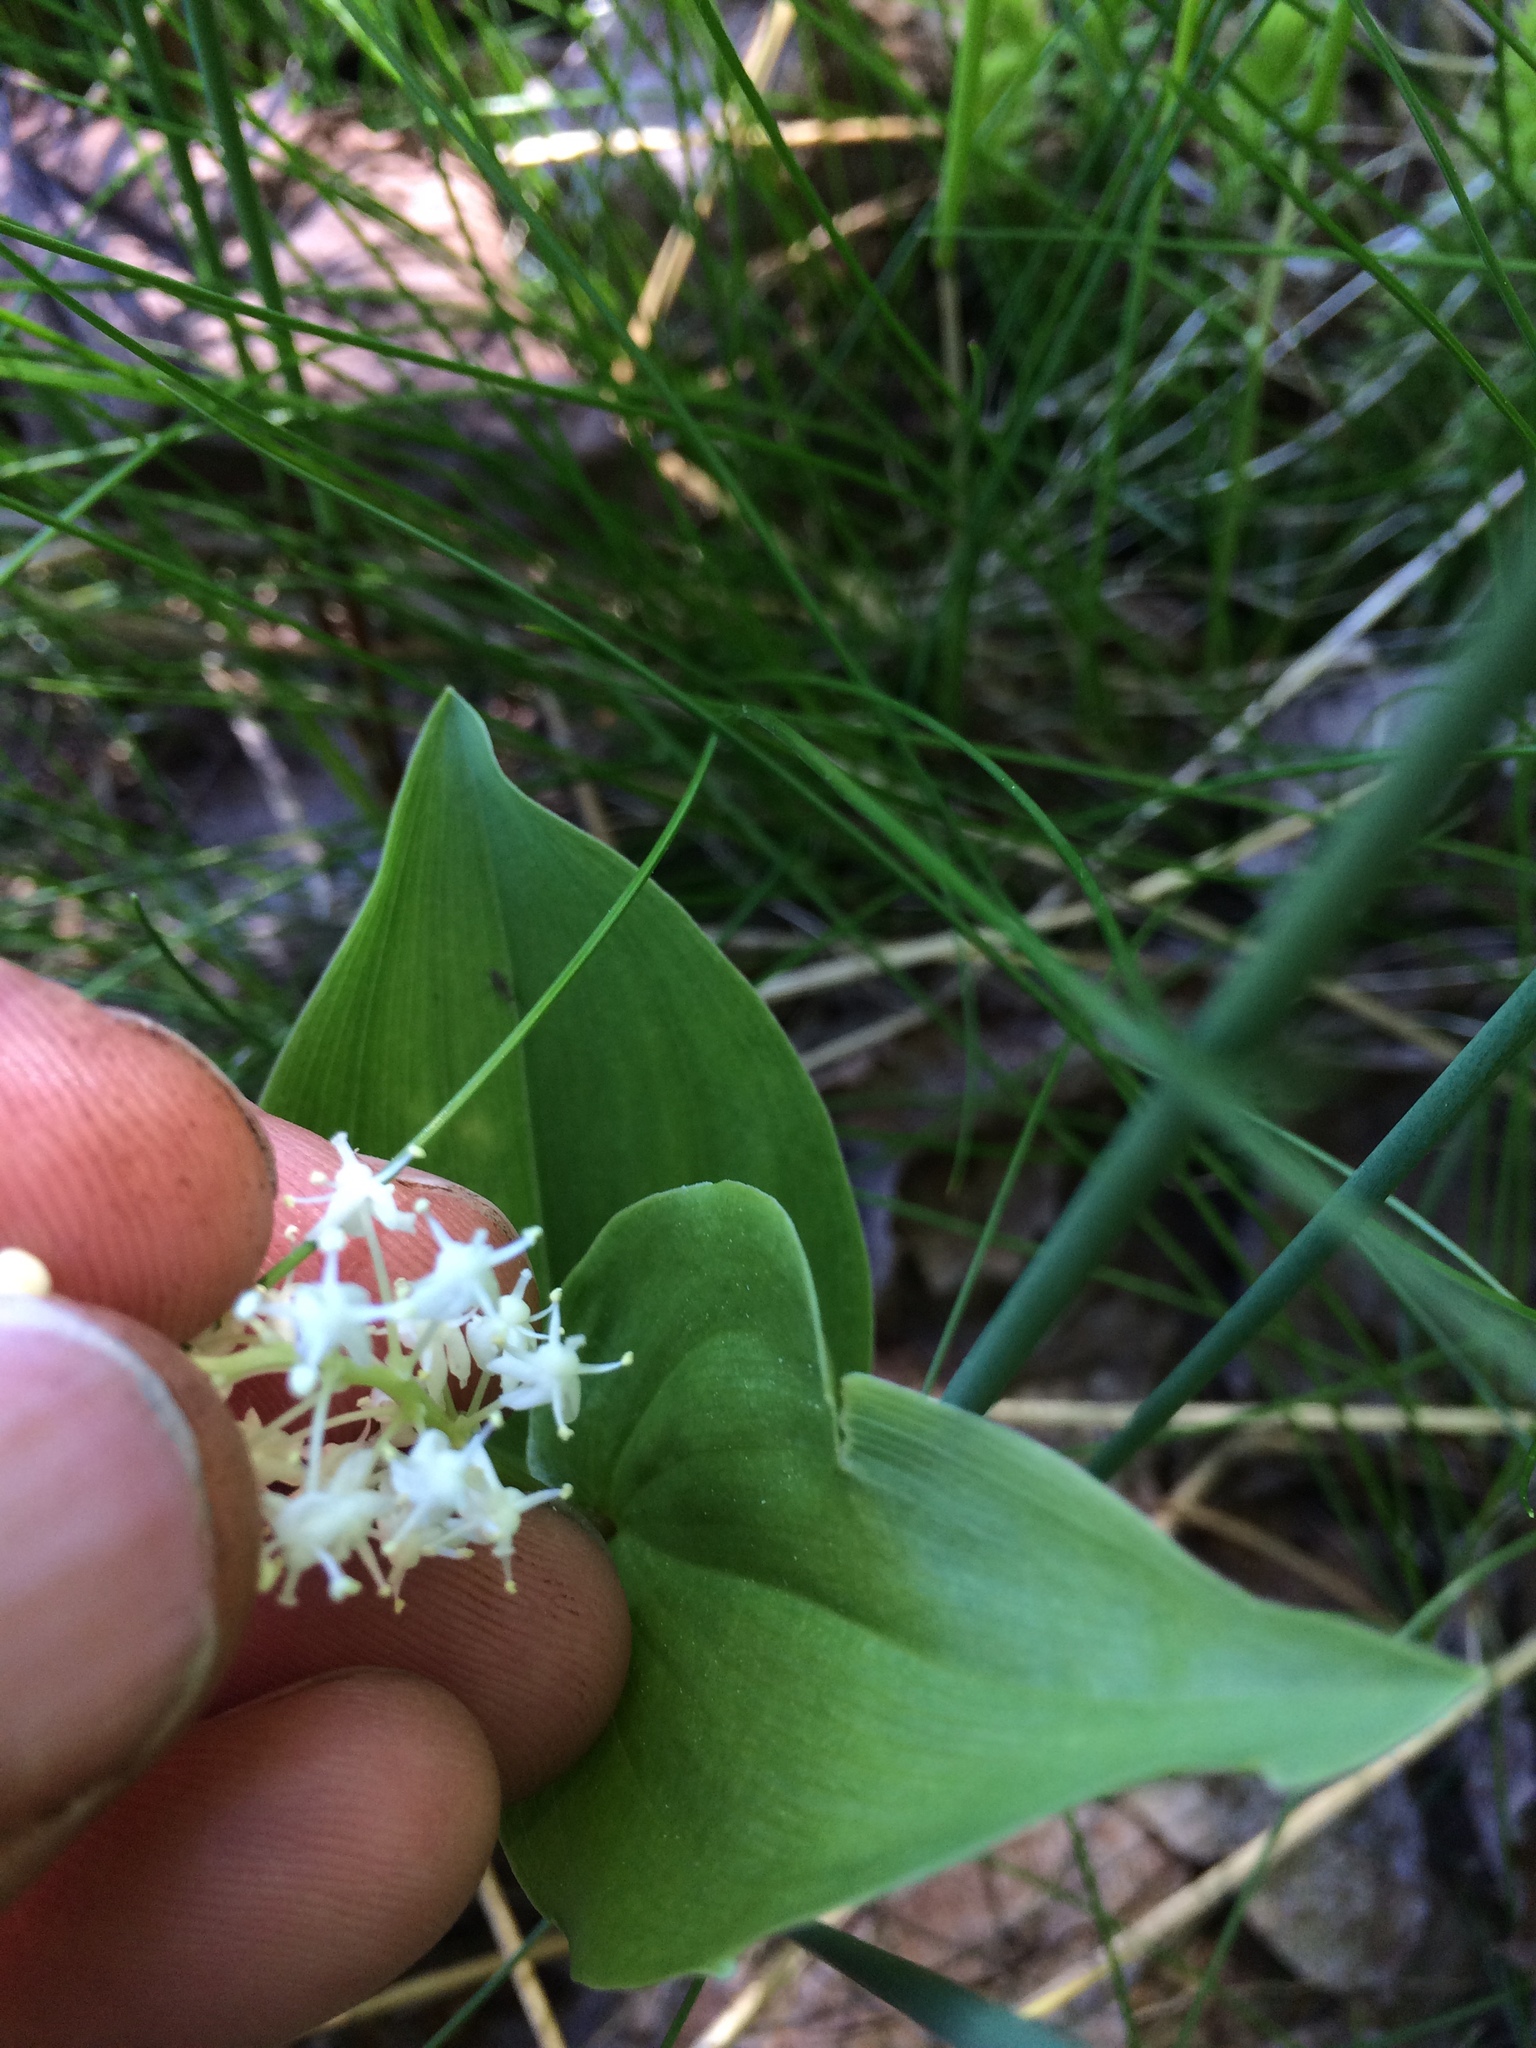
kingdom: Plantae
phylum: Tracheophyta
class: Liliopsida
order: Asparagales
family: Asparagaceae
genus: Maianthemum
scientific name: Maianthemum canadense
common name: False lily-of-the-valley
